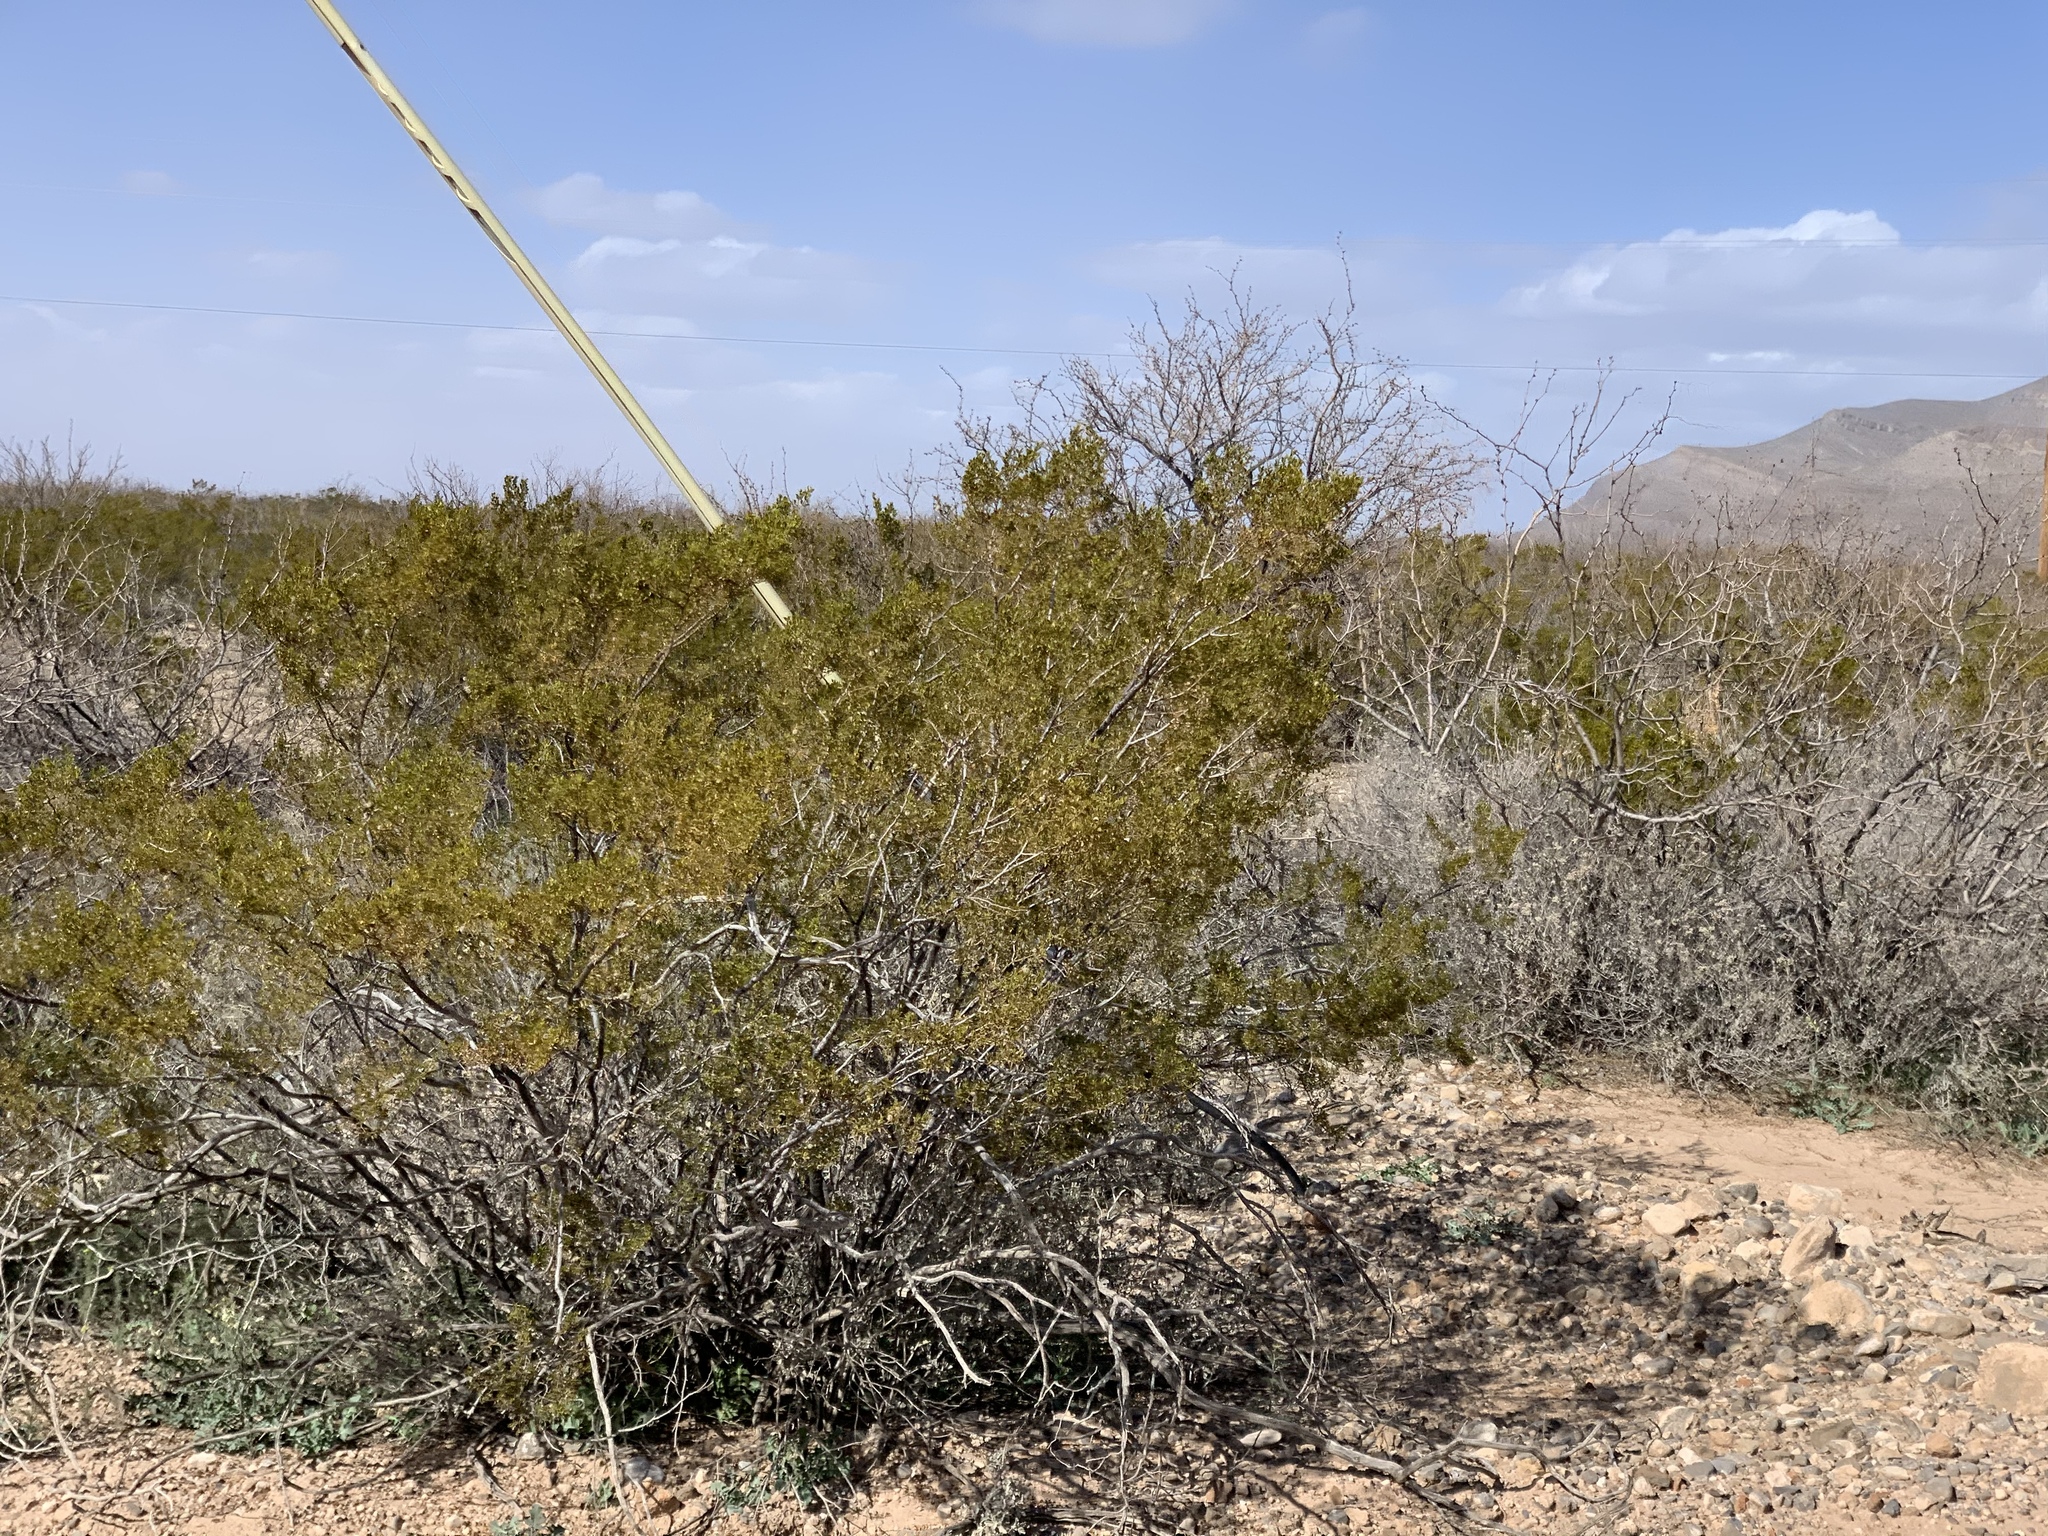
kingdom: Plantae
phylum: Tracheophyta
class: Magnoliopsida
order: Zygophyllales
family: Zygophyllaceae
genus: Larrea
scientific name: Larrea tridentata
